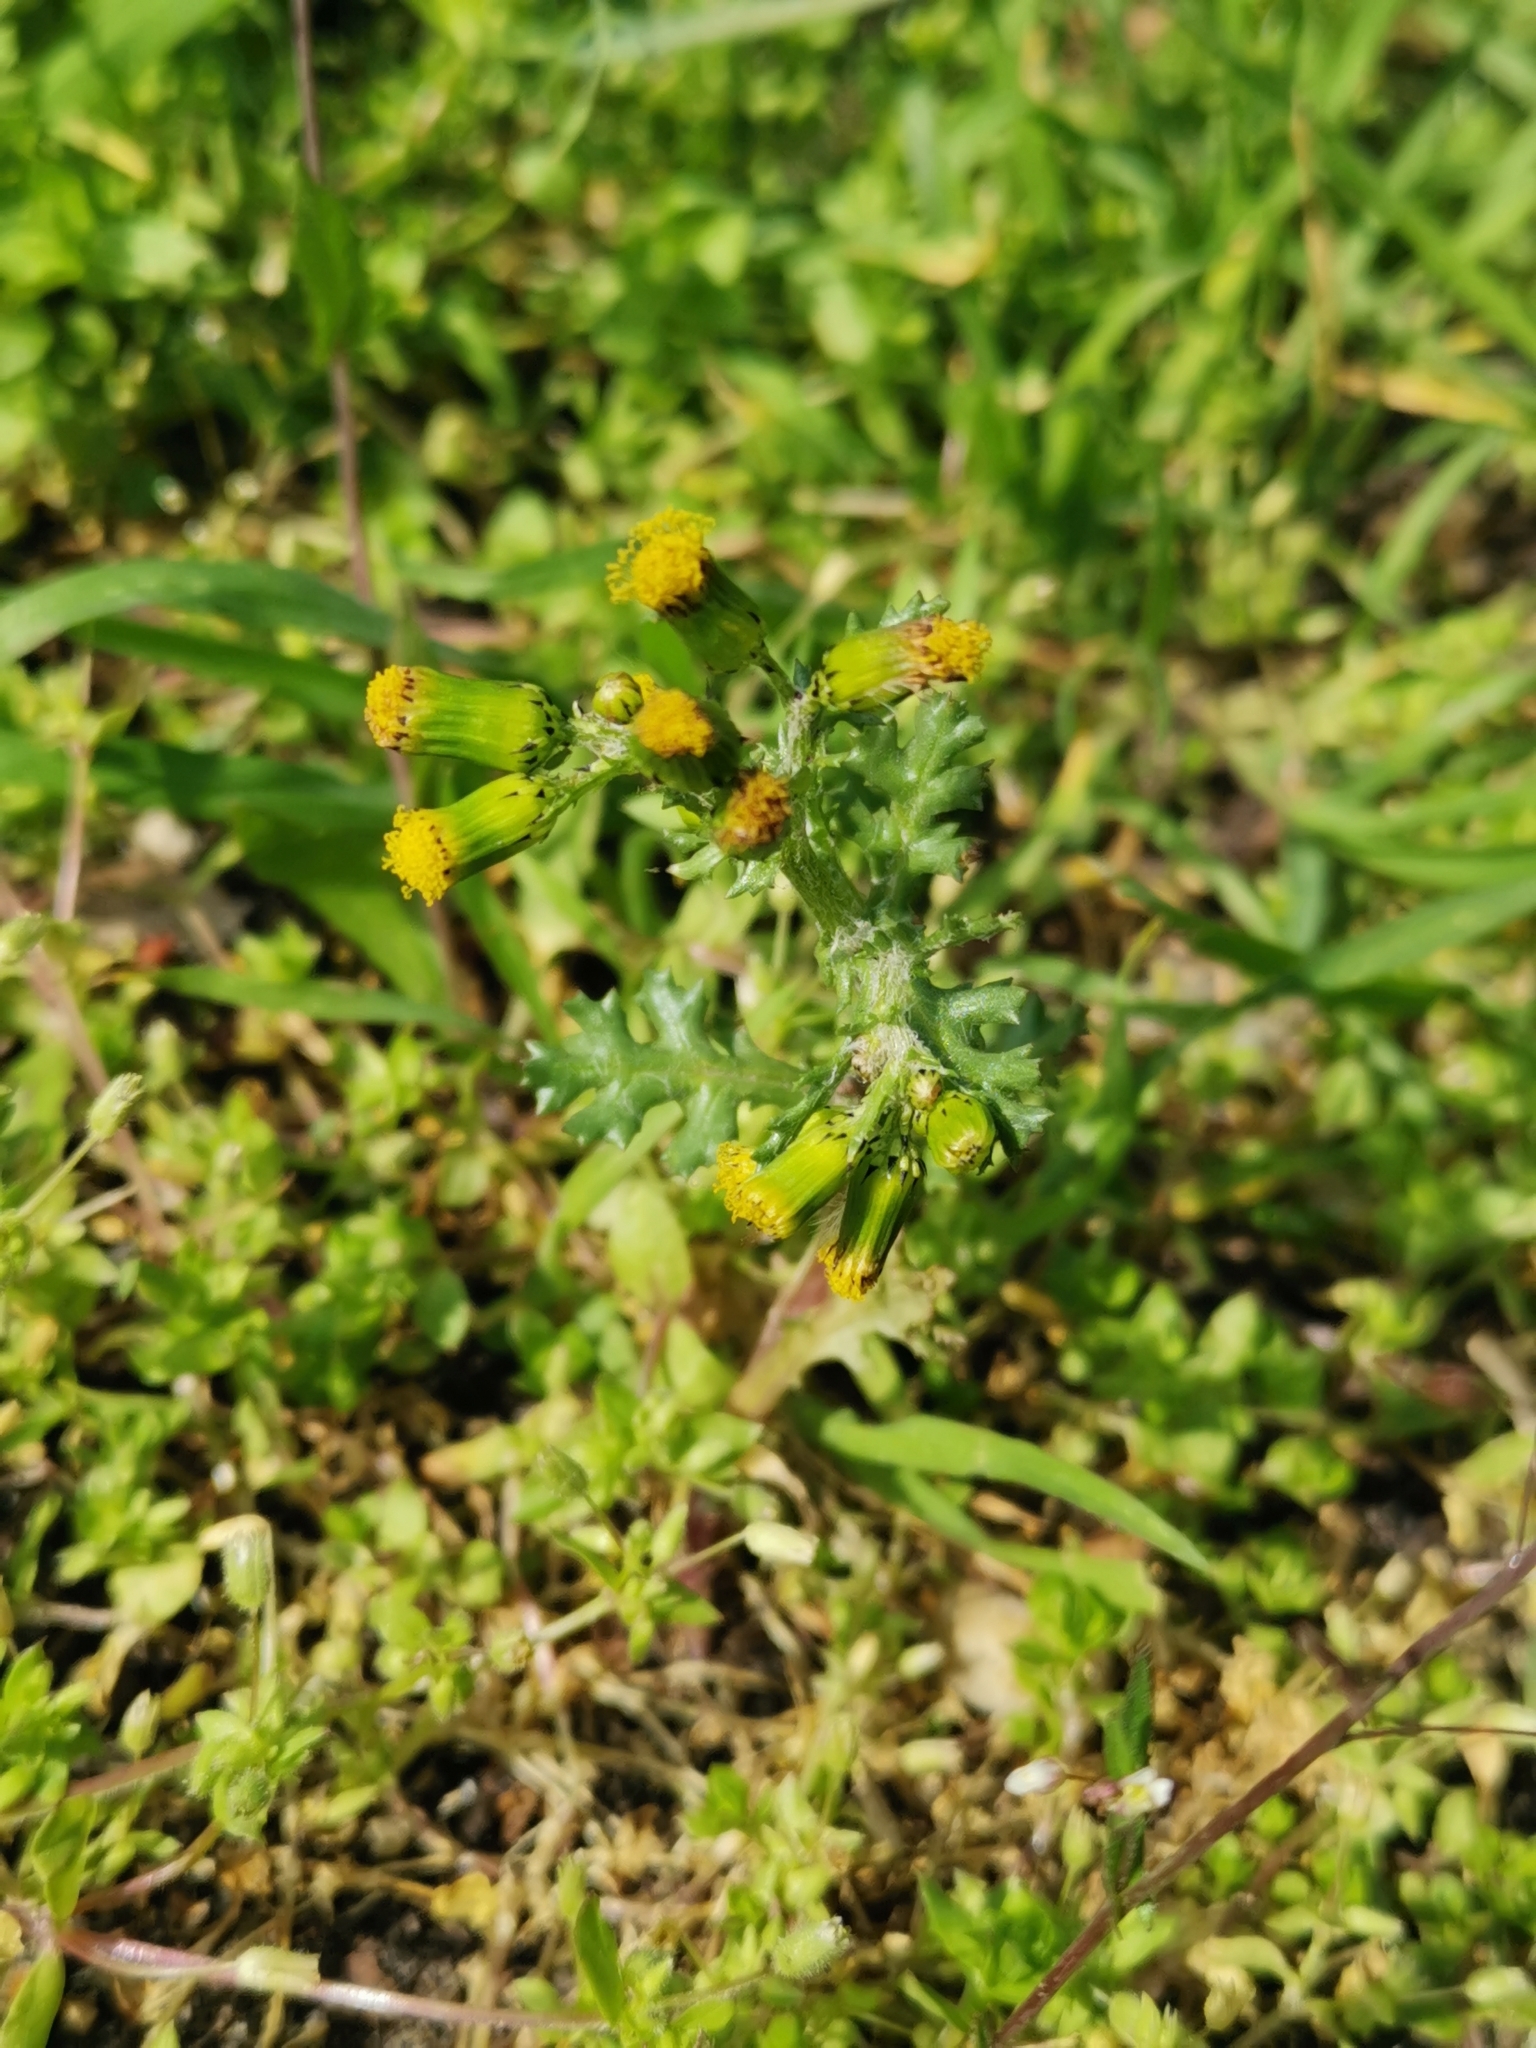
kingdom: Plantae
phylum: Tracheophyta
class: Magnoliopsida
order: Asterales
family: Asteraceae
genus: Senecio
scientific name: Senecio vulgaris
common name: Old-man-in-the-spring
